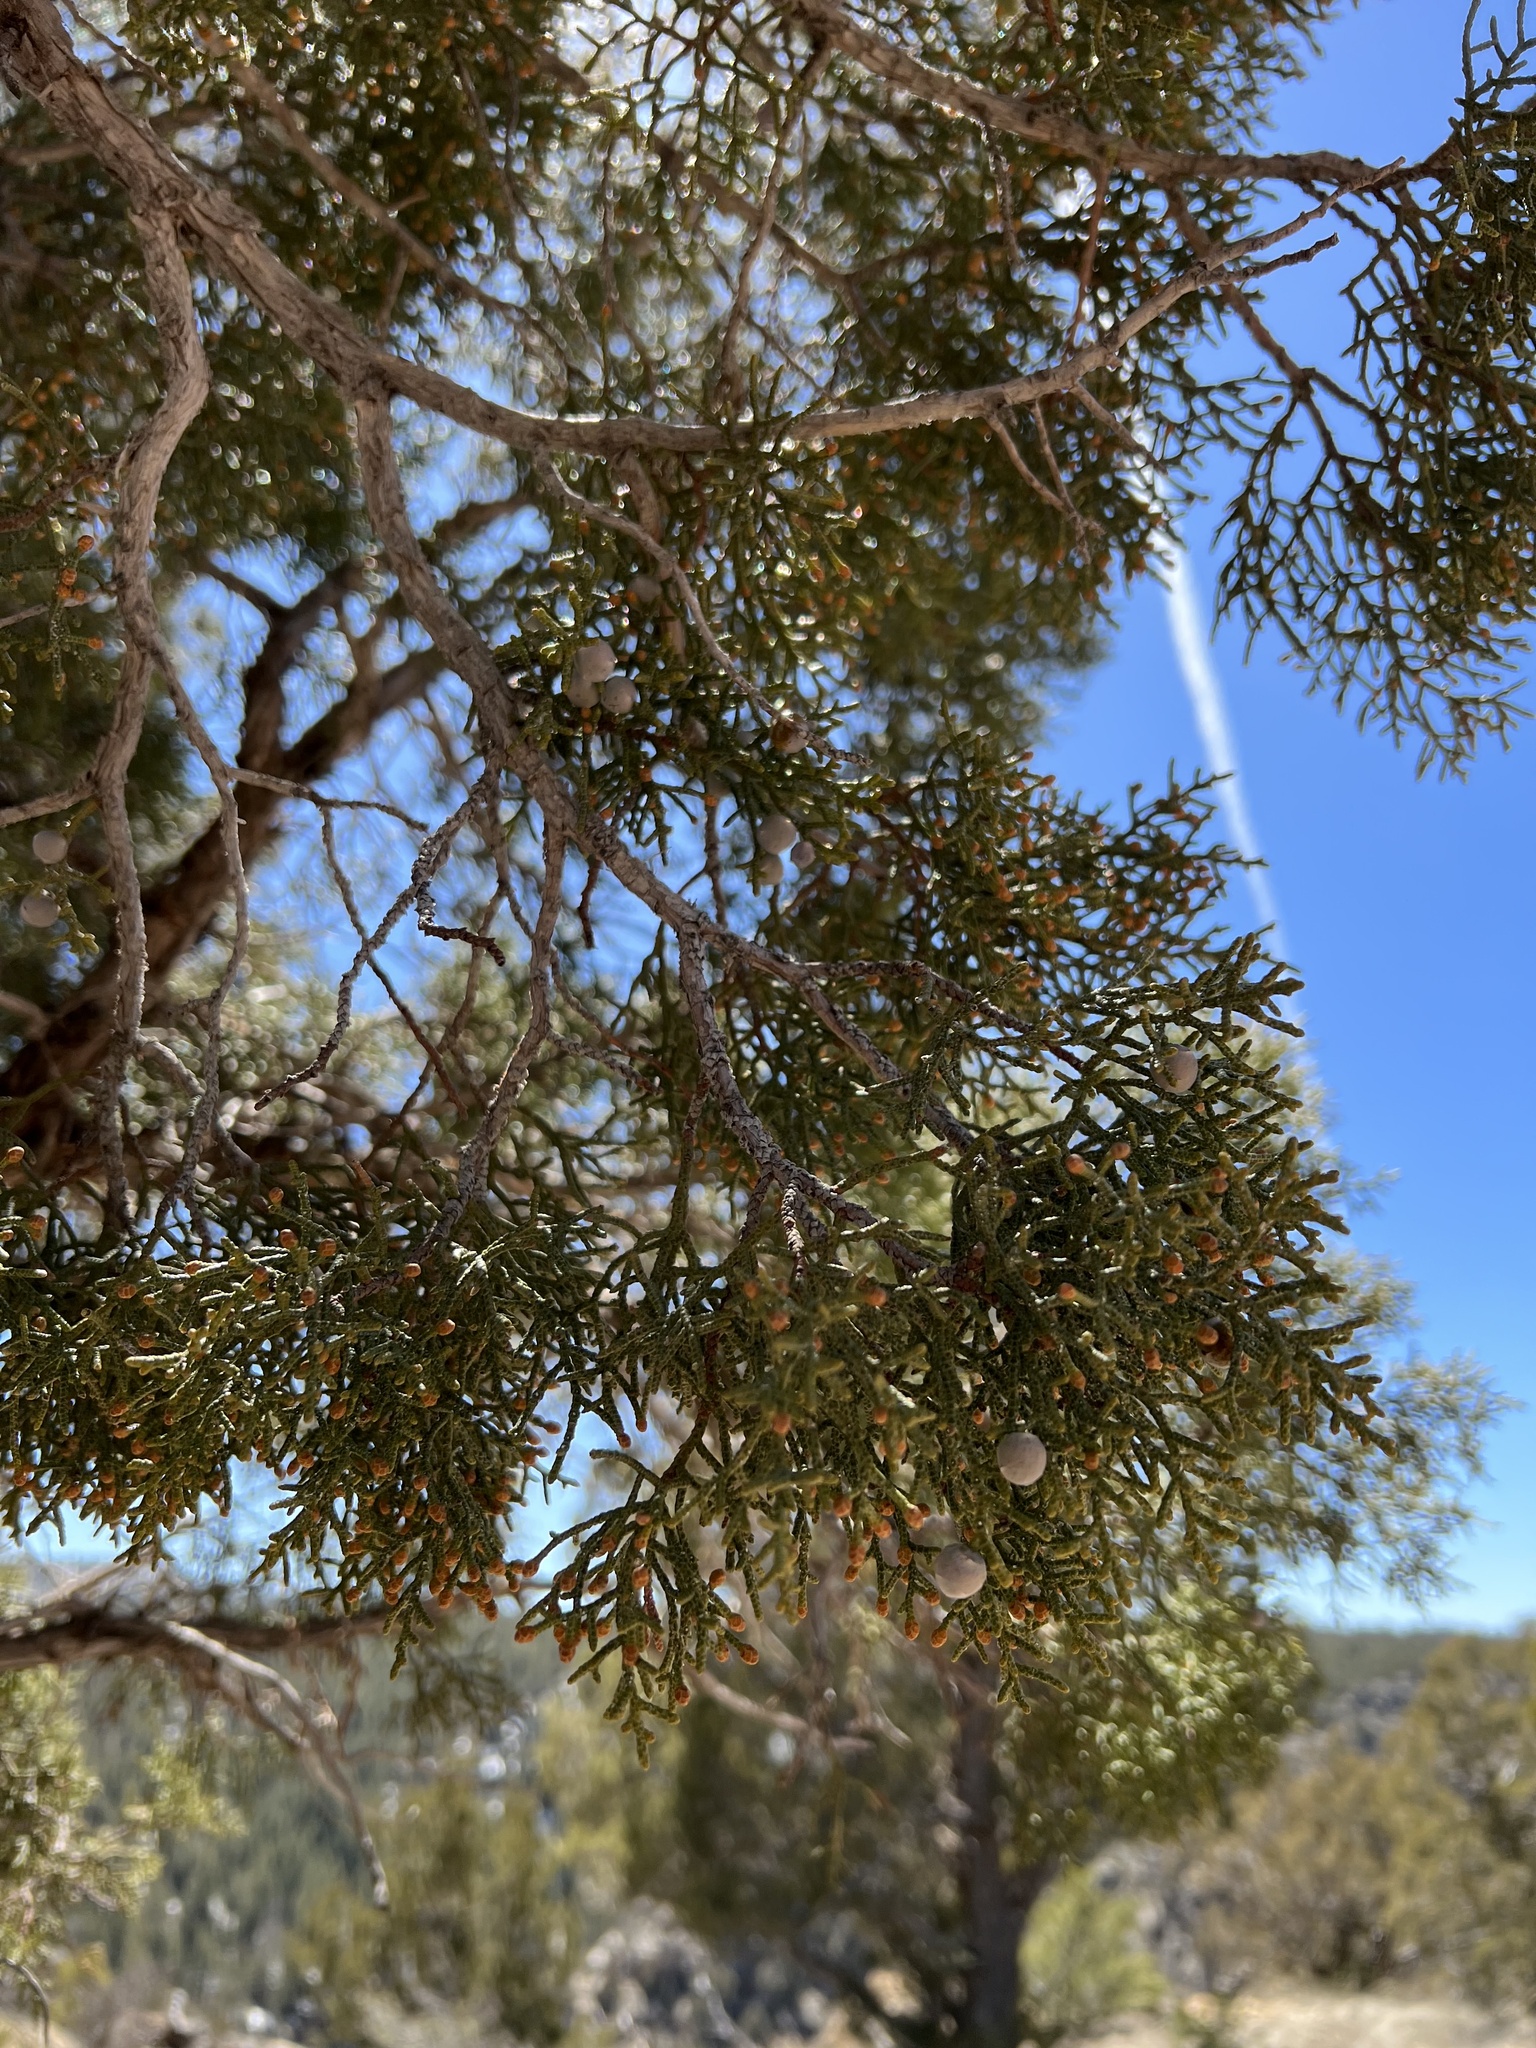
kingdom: Plantae
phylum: Tracheophyta
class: Pinopsida
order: Pinales
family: Cupressaceae
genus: Juniperus
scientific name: Juniperus osteosperma
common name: Utah juniper
